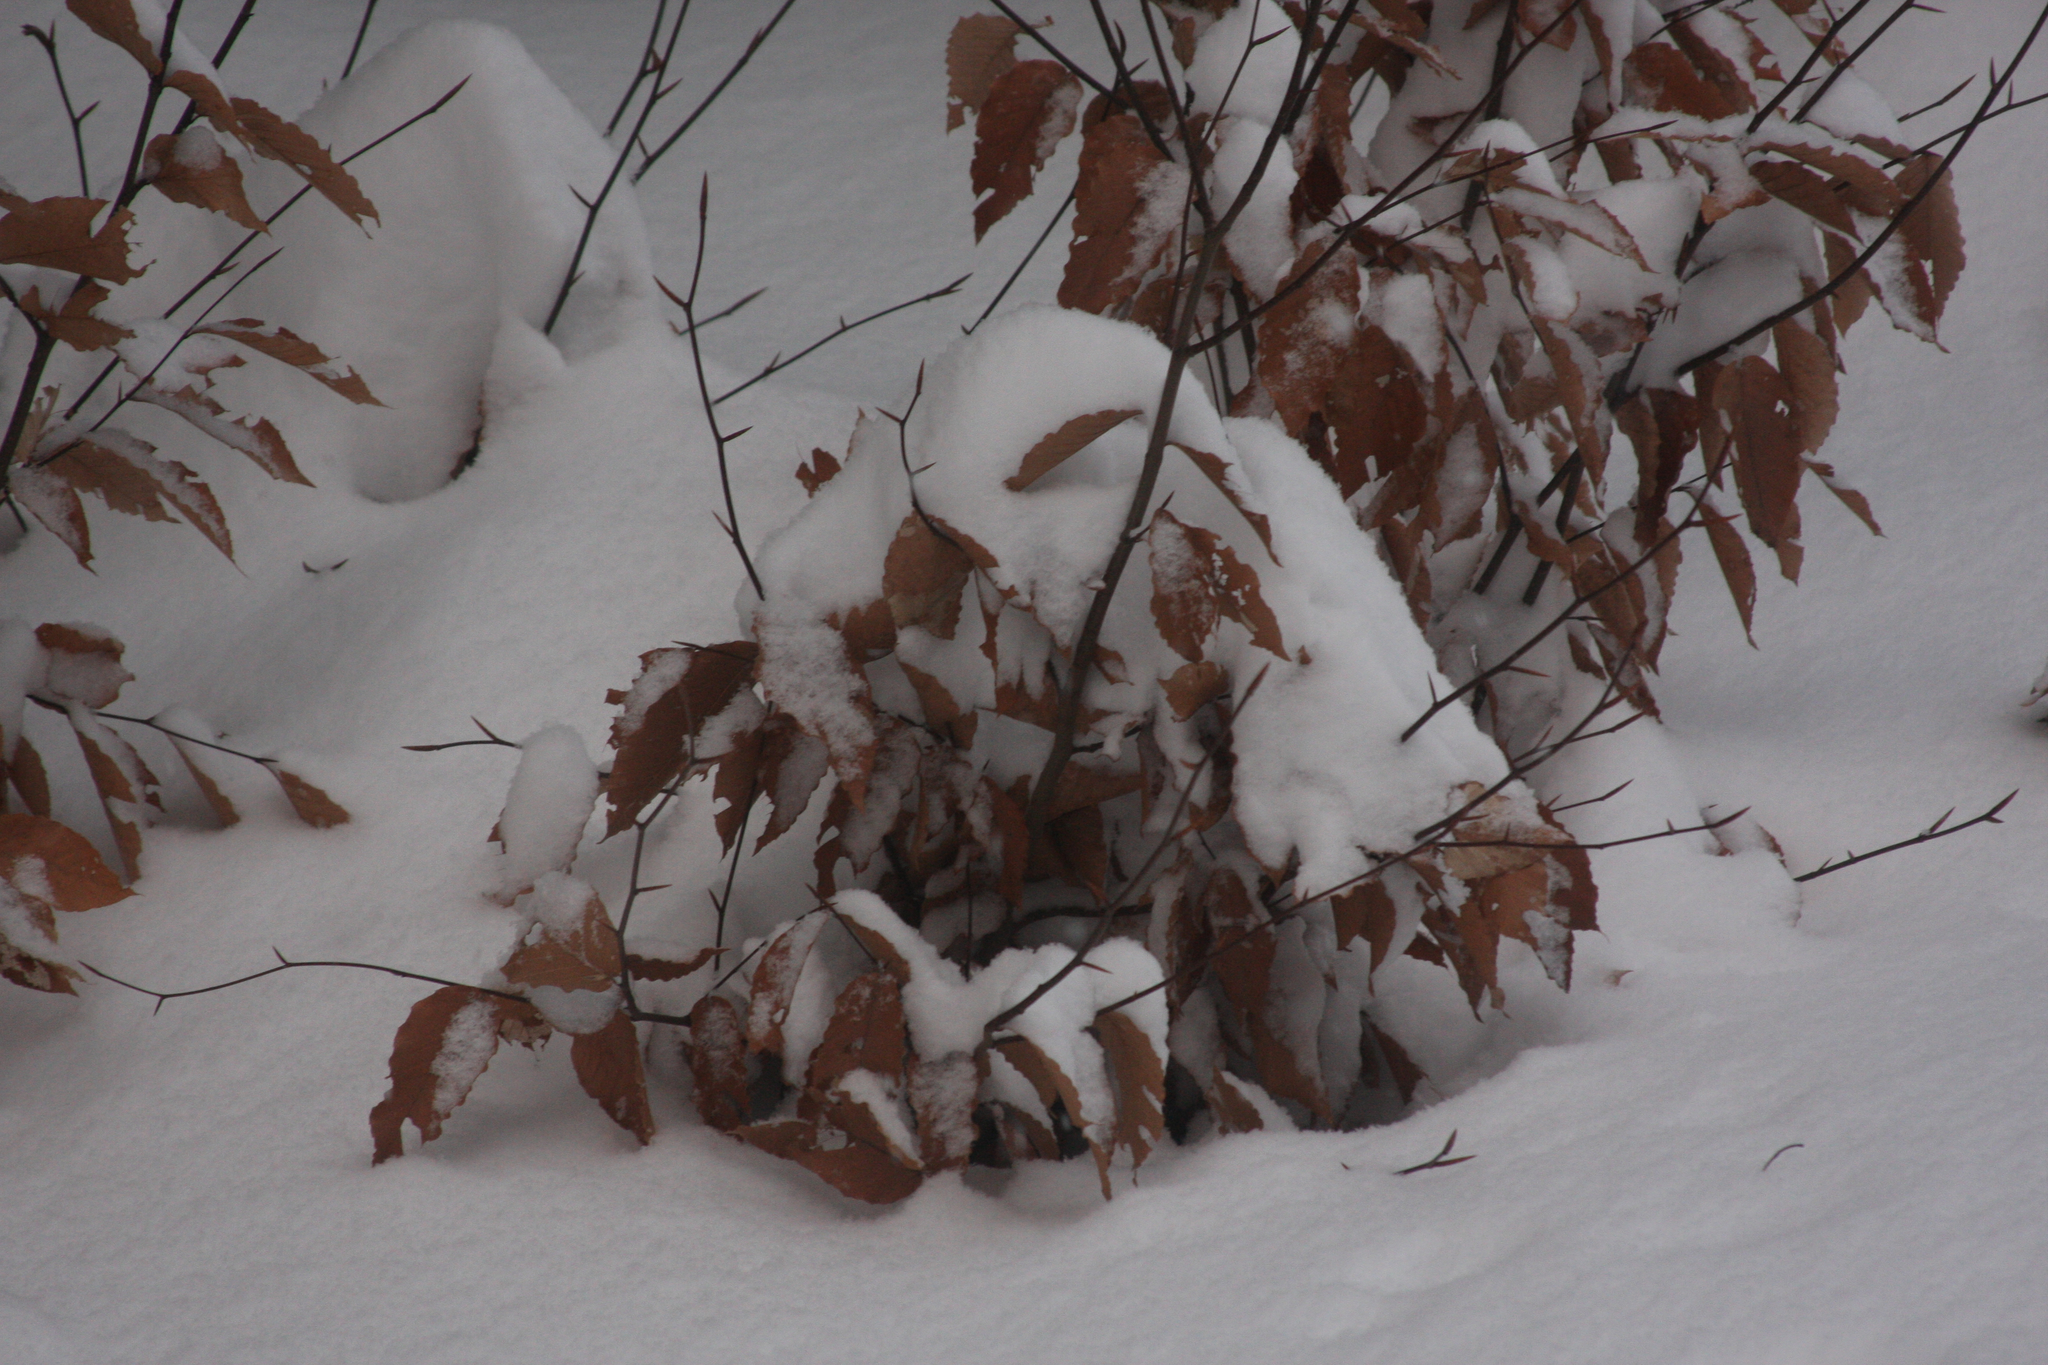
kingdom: Plantae
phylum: Tracheophyta
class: Magnoliopsida
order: Fagales
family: Fagaceae
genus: Fagus
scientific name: Fagus grandifolia
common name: American beech
